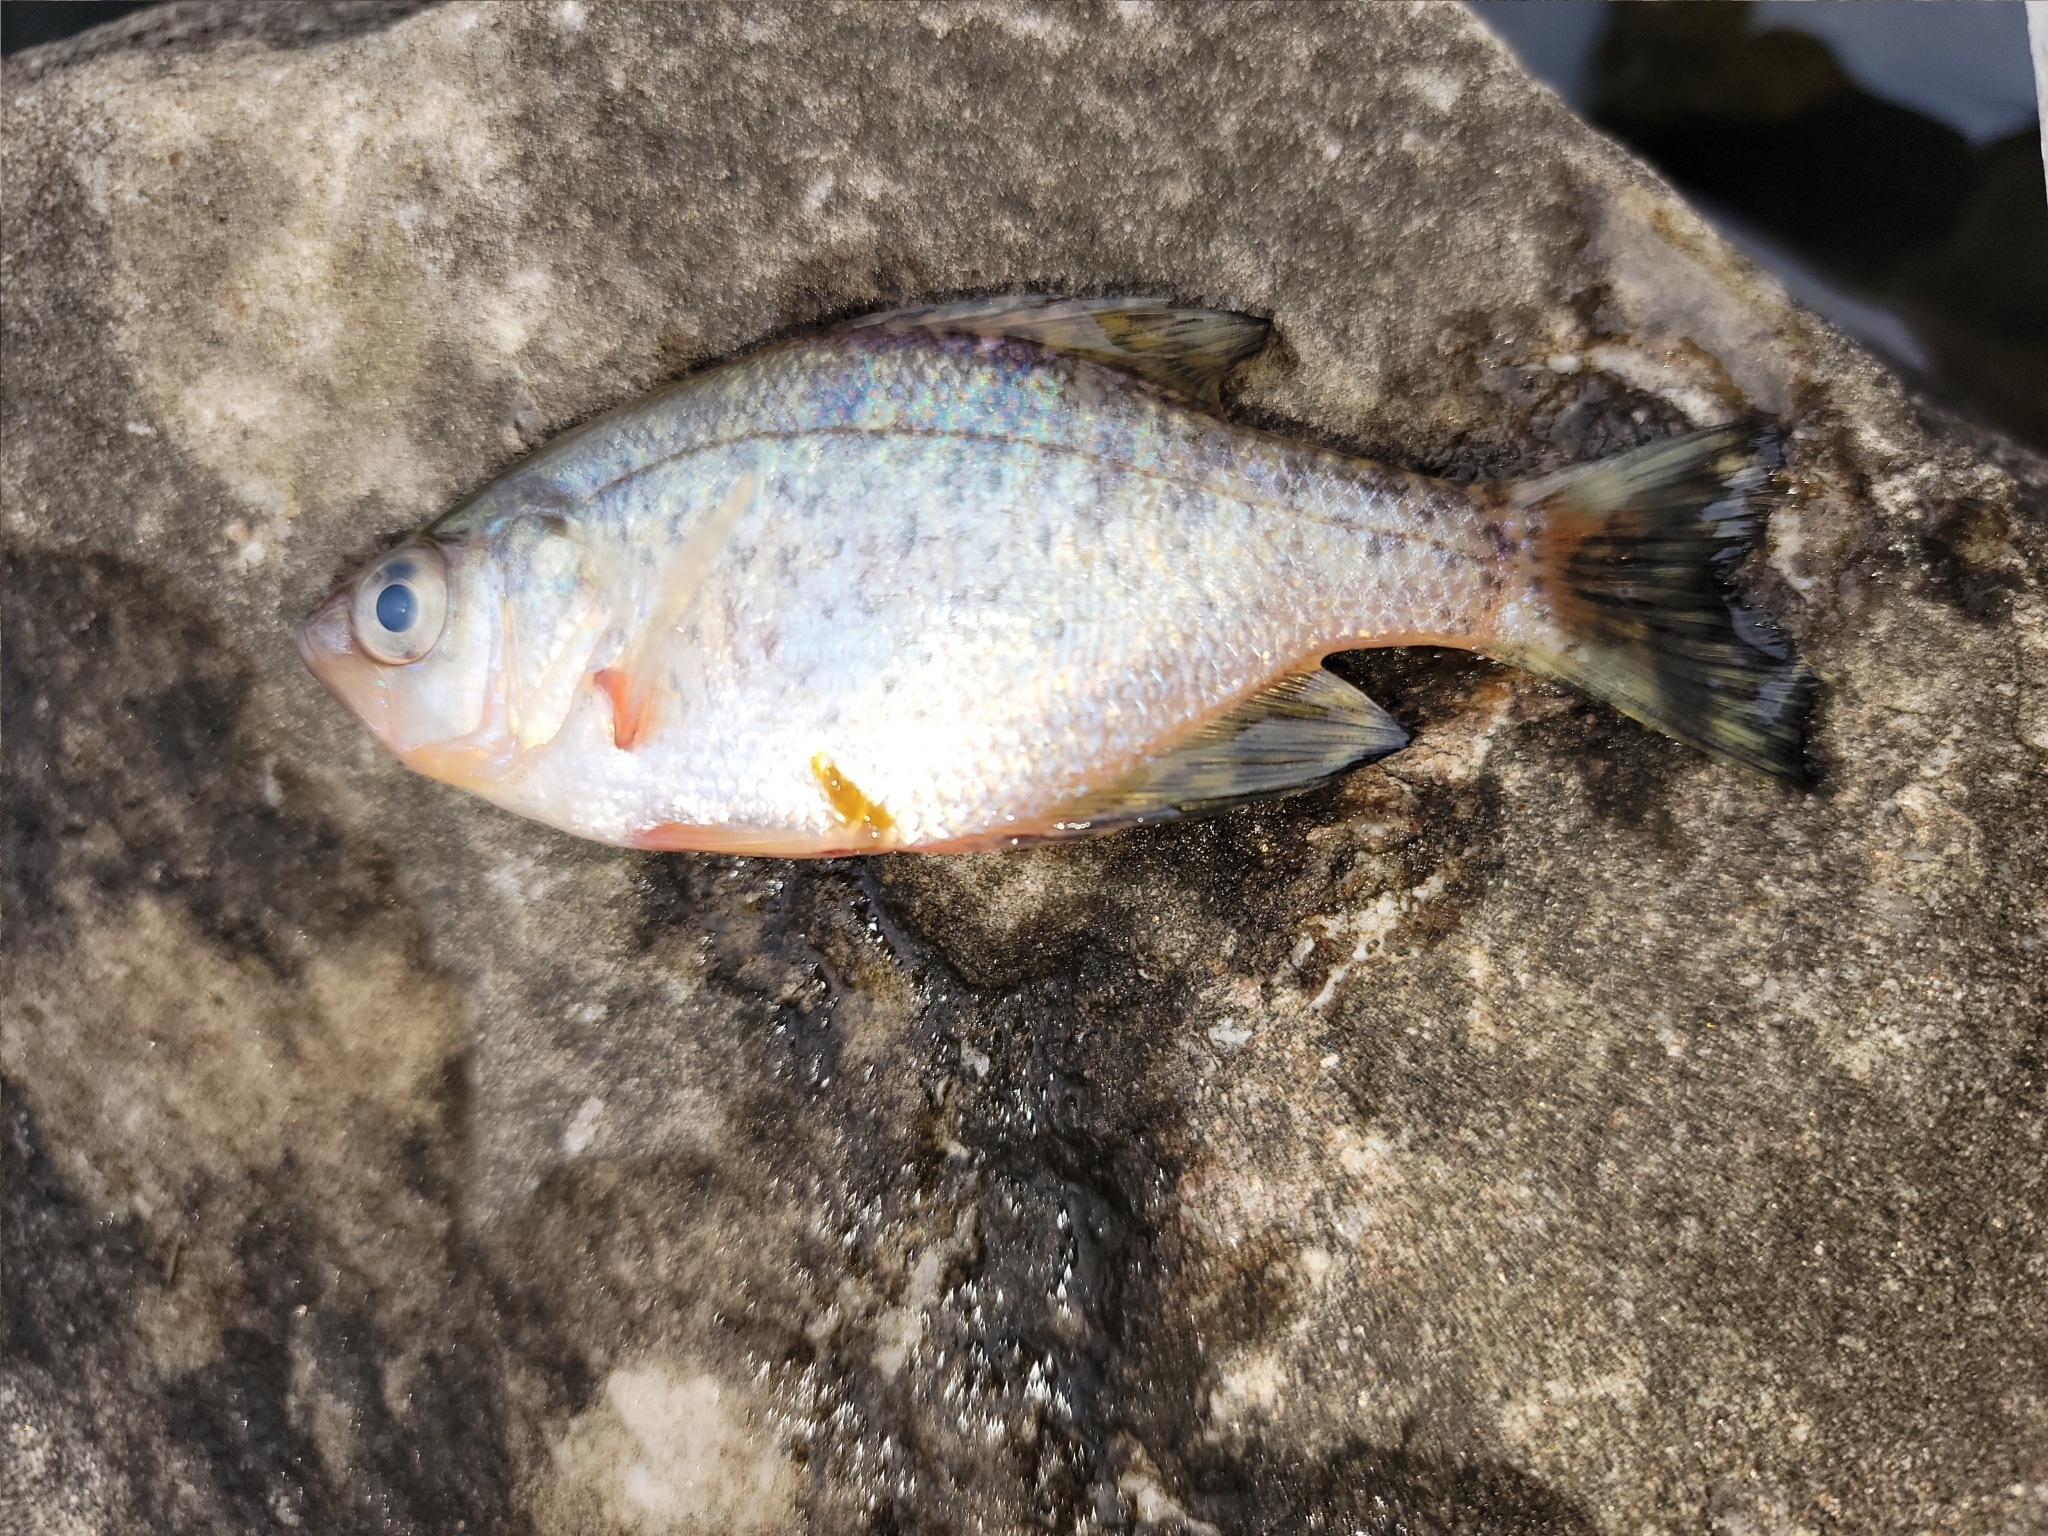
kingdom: Animalia
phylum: Chordata
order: Perciformes
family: Centrarchidae
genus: Pomoxis
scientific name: Pomoxis nigromaculatus
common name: Black crappie
